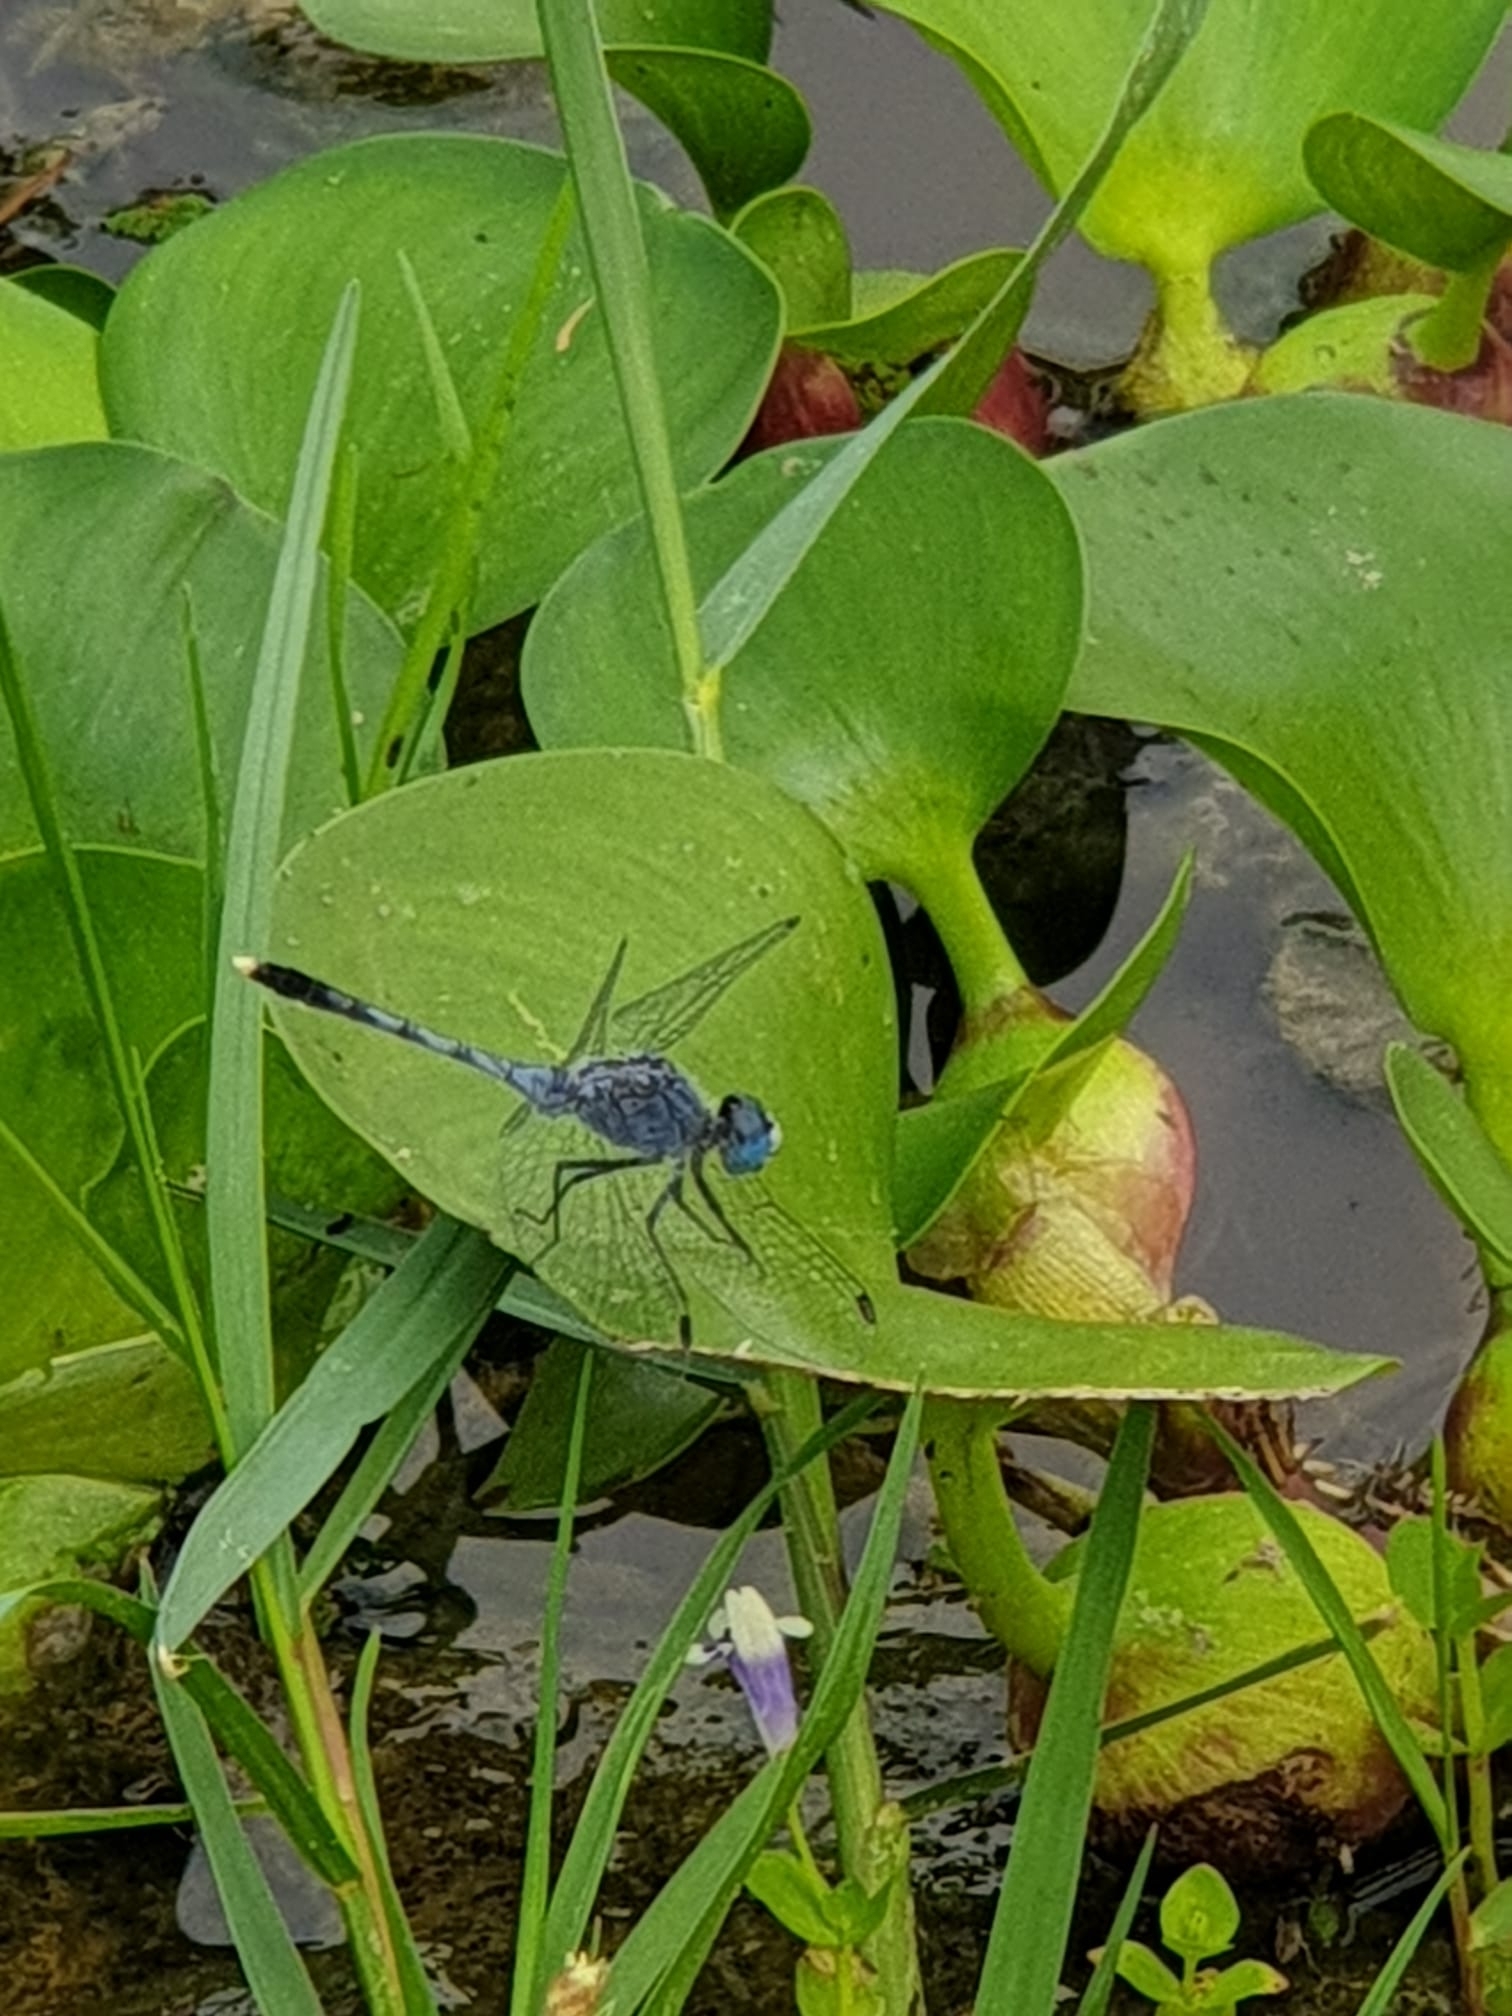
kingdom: Animalia
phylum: Arthropoda
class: Insecta
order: Odonata
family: Libellulidae
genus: Diplacodes
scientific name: Diplacodes trivialis
